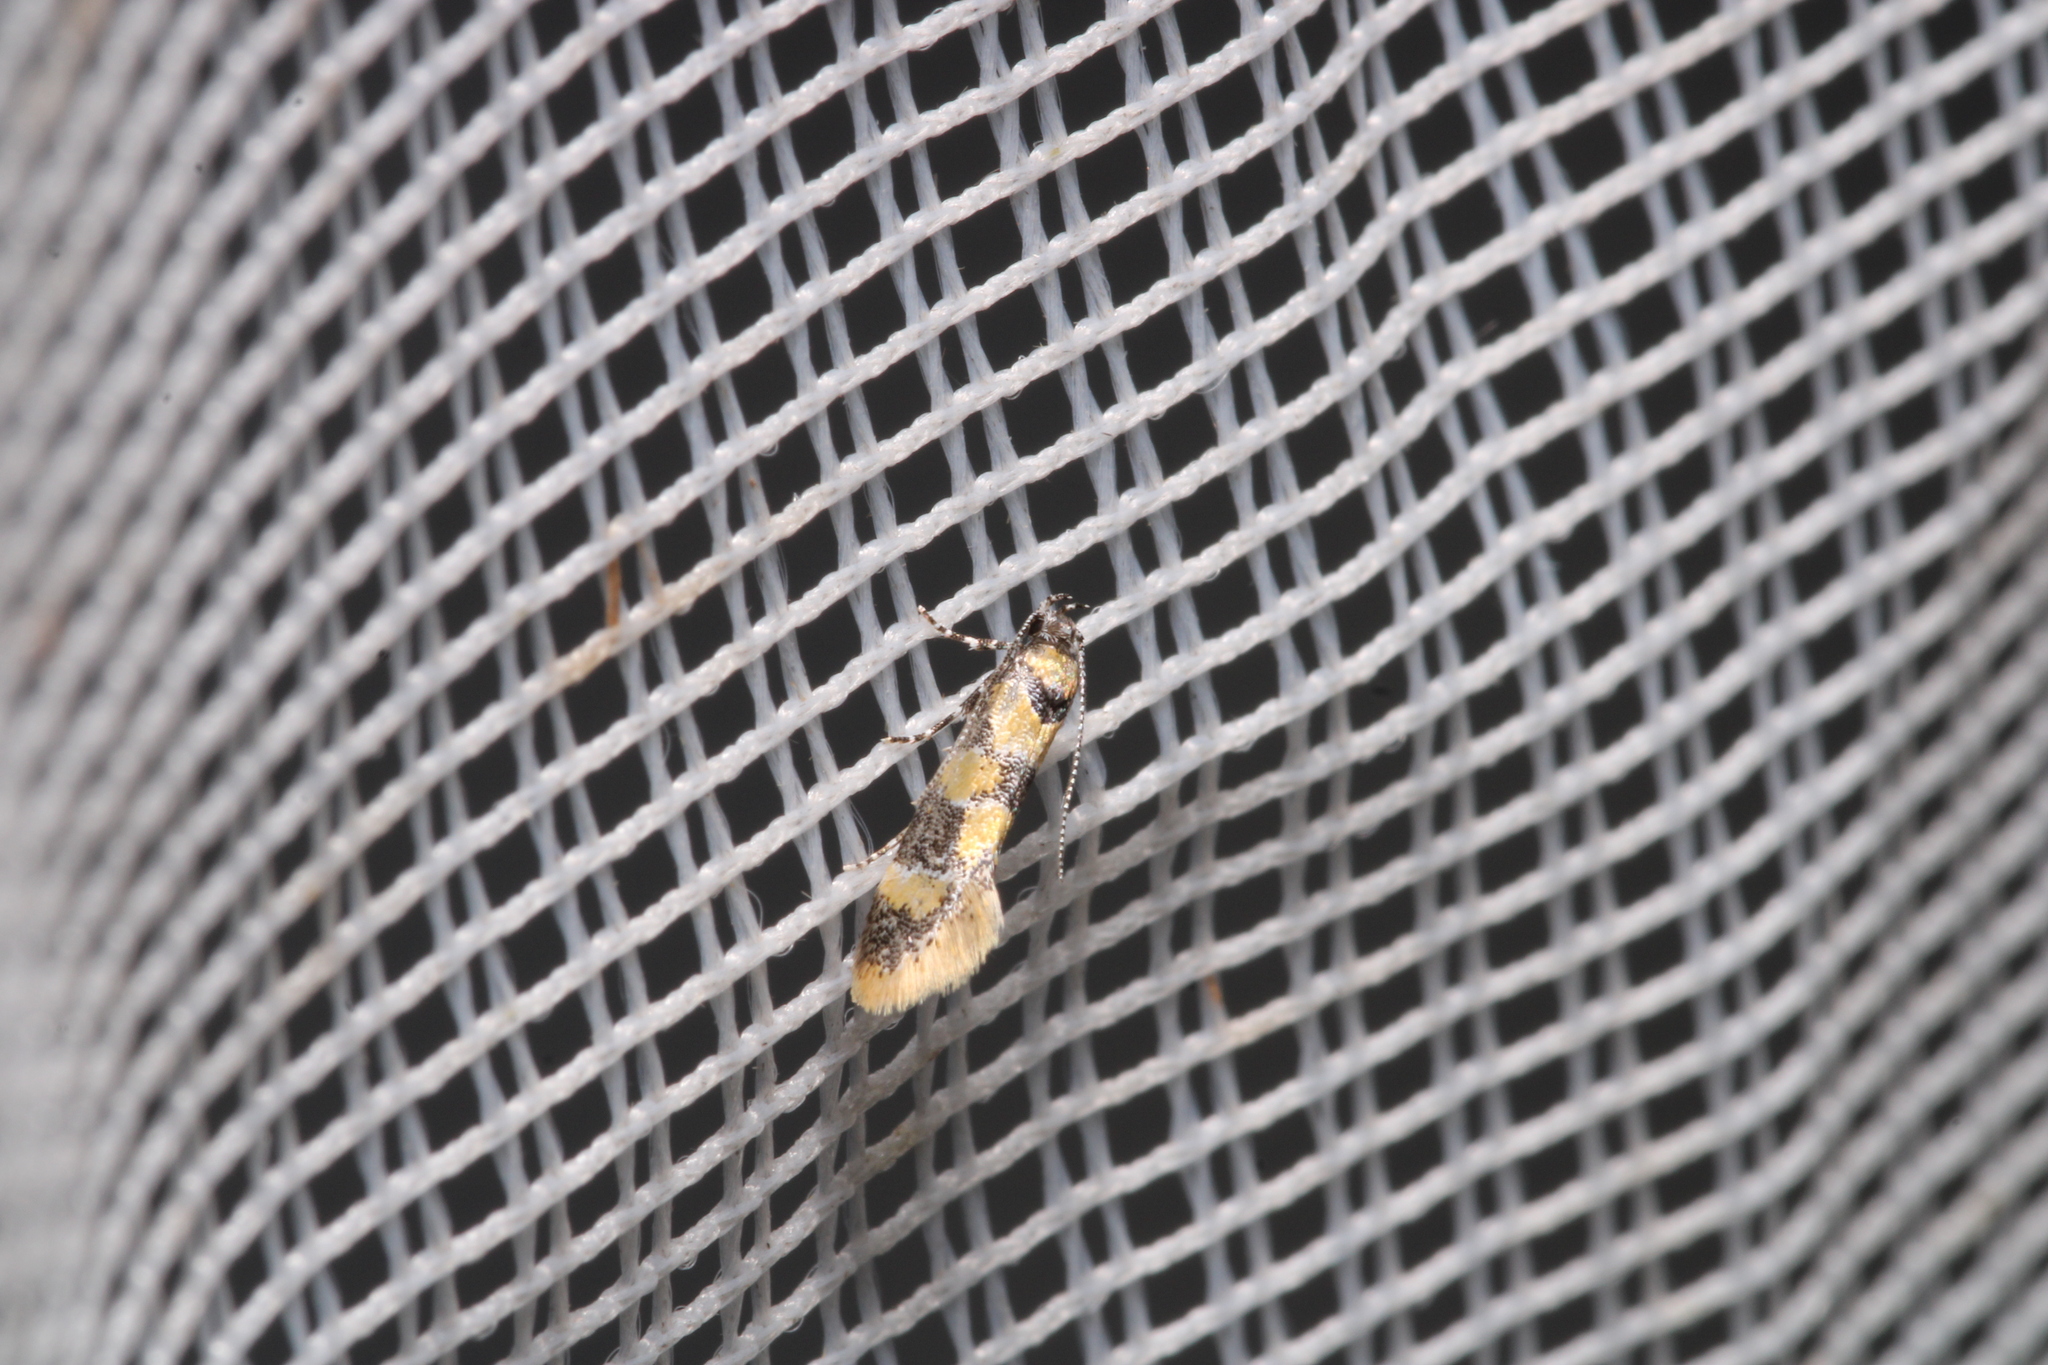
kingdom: Animalia
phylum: Arthropoda
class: Insecta
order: Lepidoptera
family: Oecophoridae
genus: Decantha
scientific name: Decantha borkhausenii
